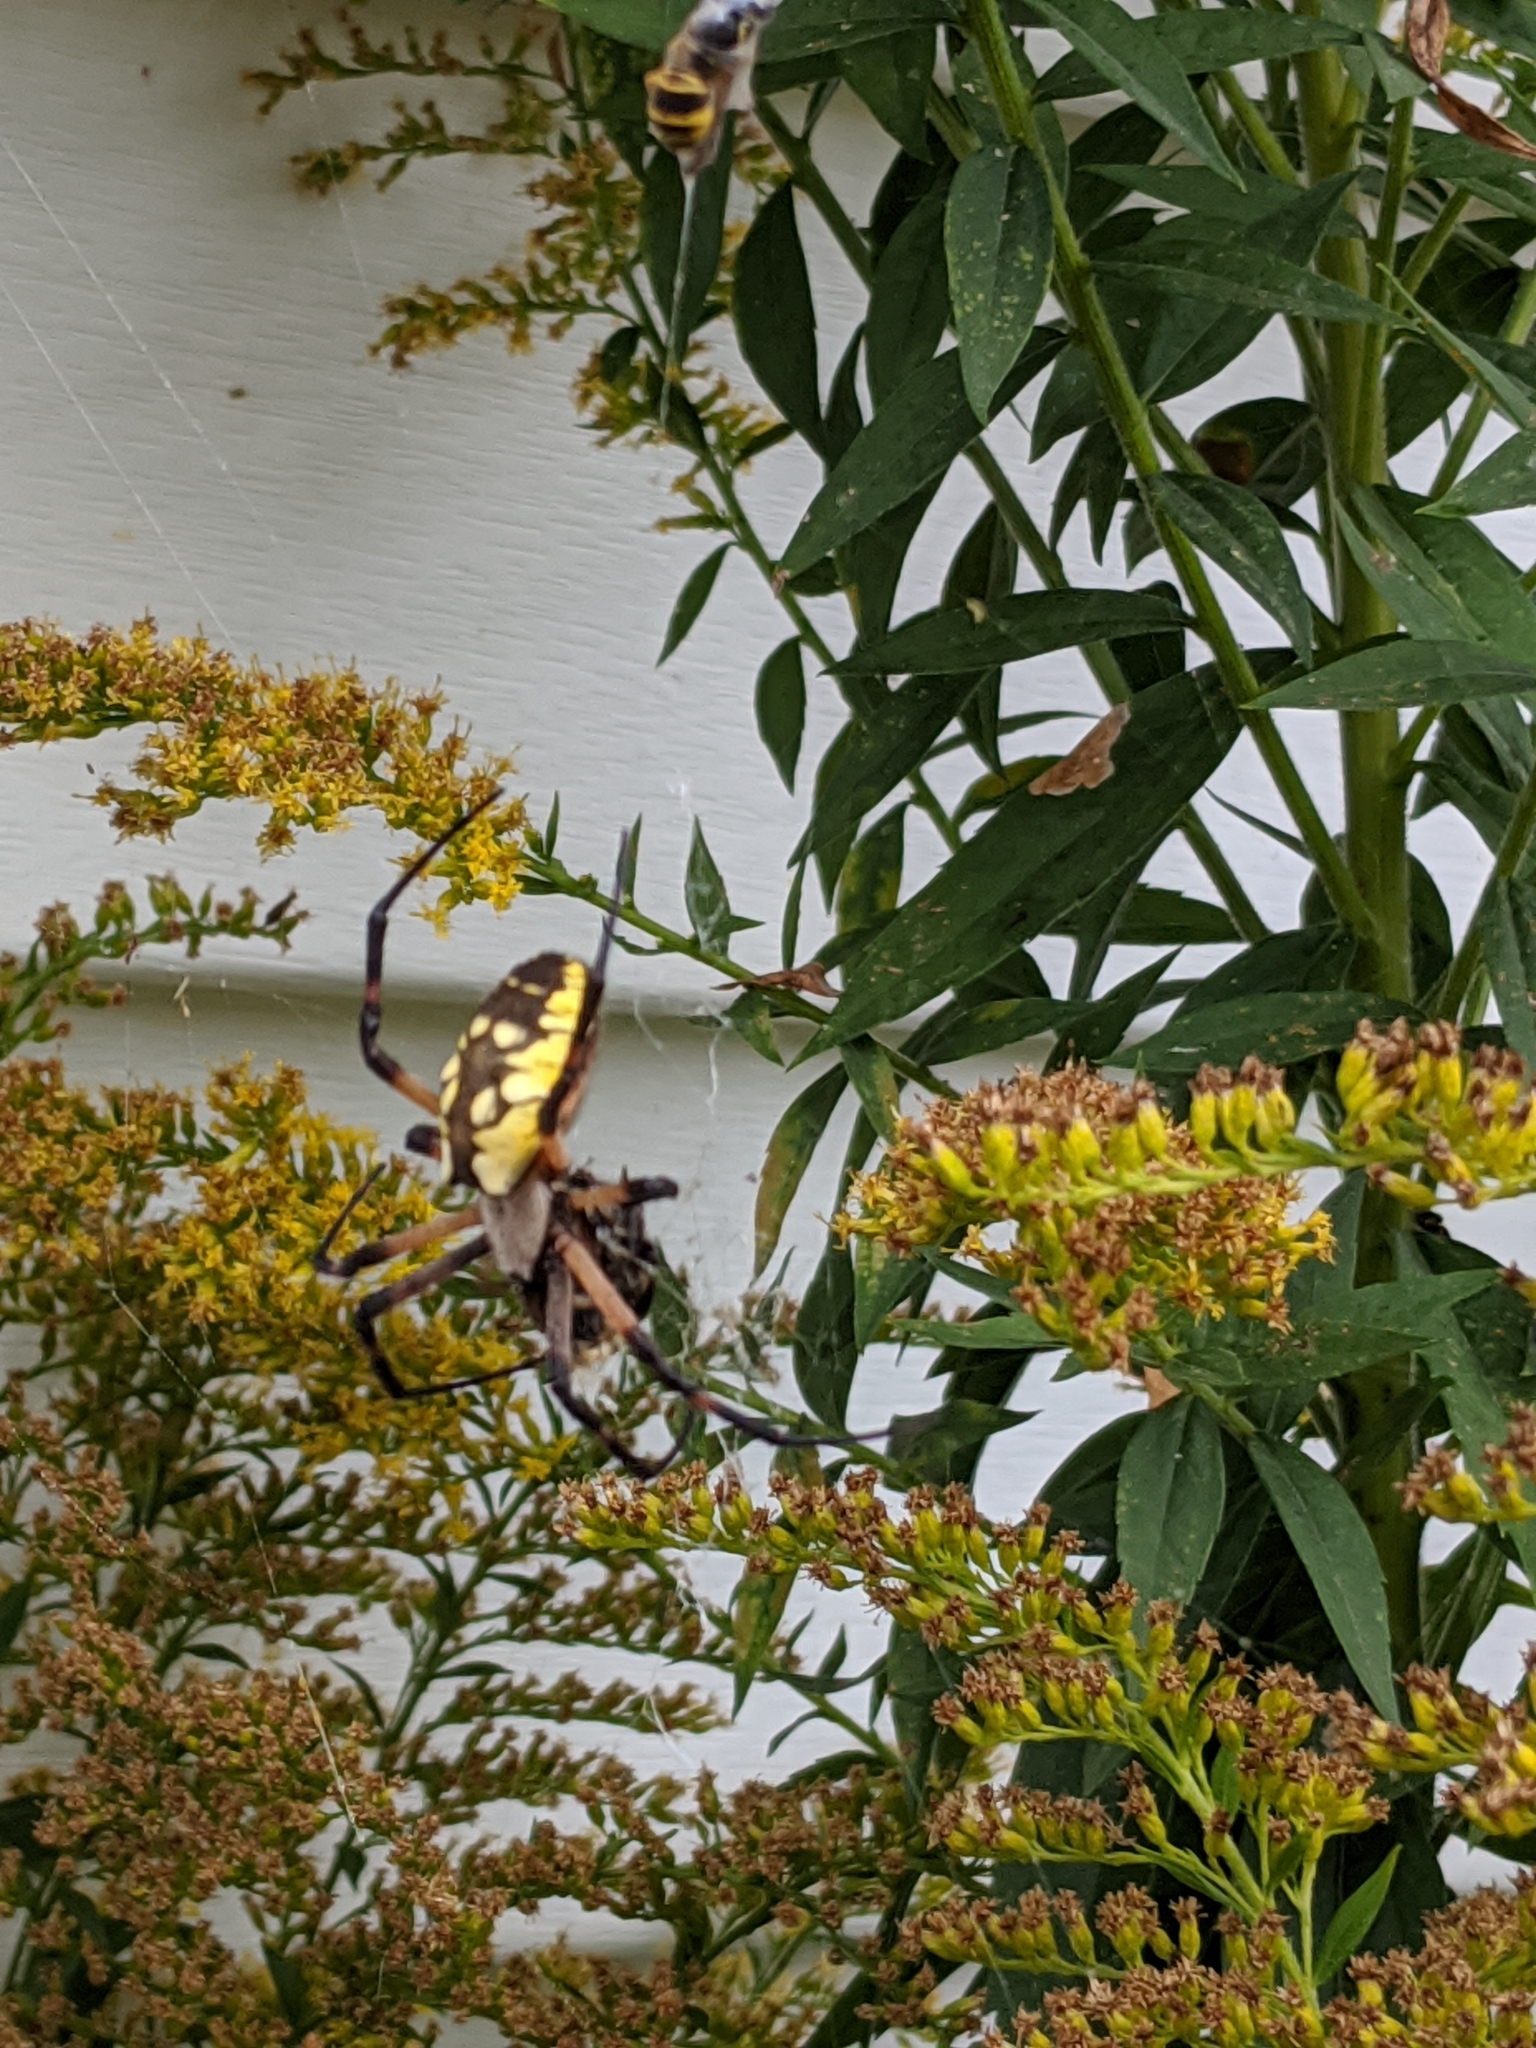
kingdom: Animalia
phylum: Arthropoda
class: Arachnida
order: Araneae
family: Araneidae
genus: Argiope
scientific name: Argiope aurantia
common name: Orb weavers
